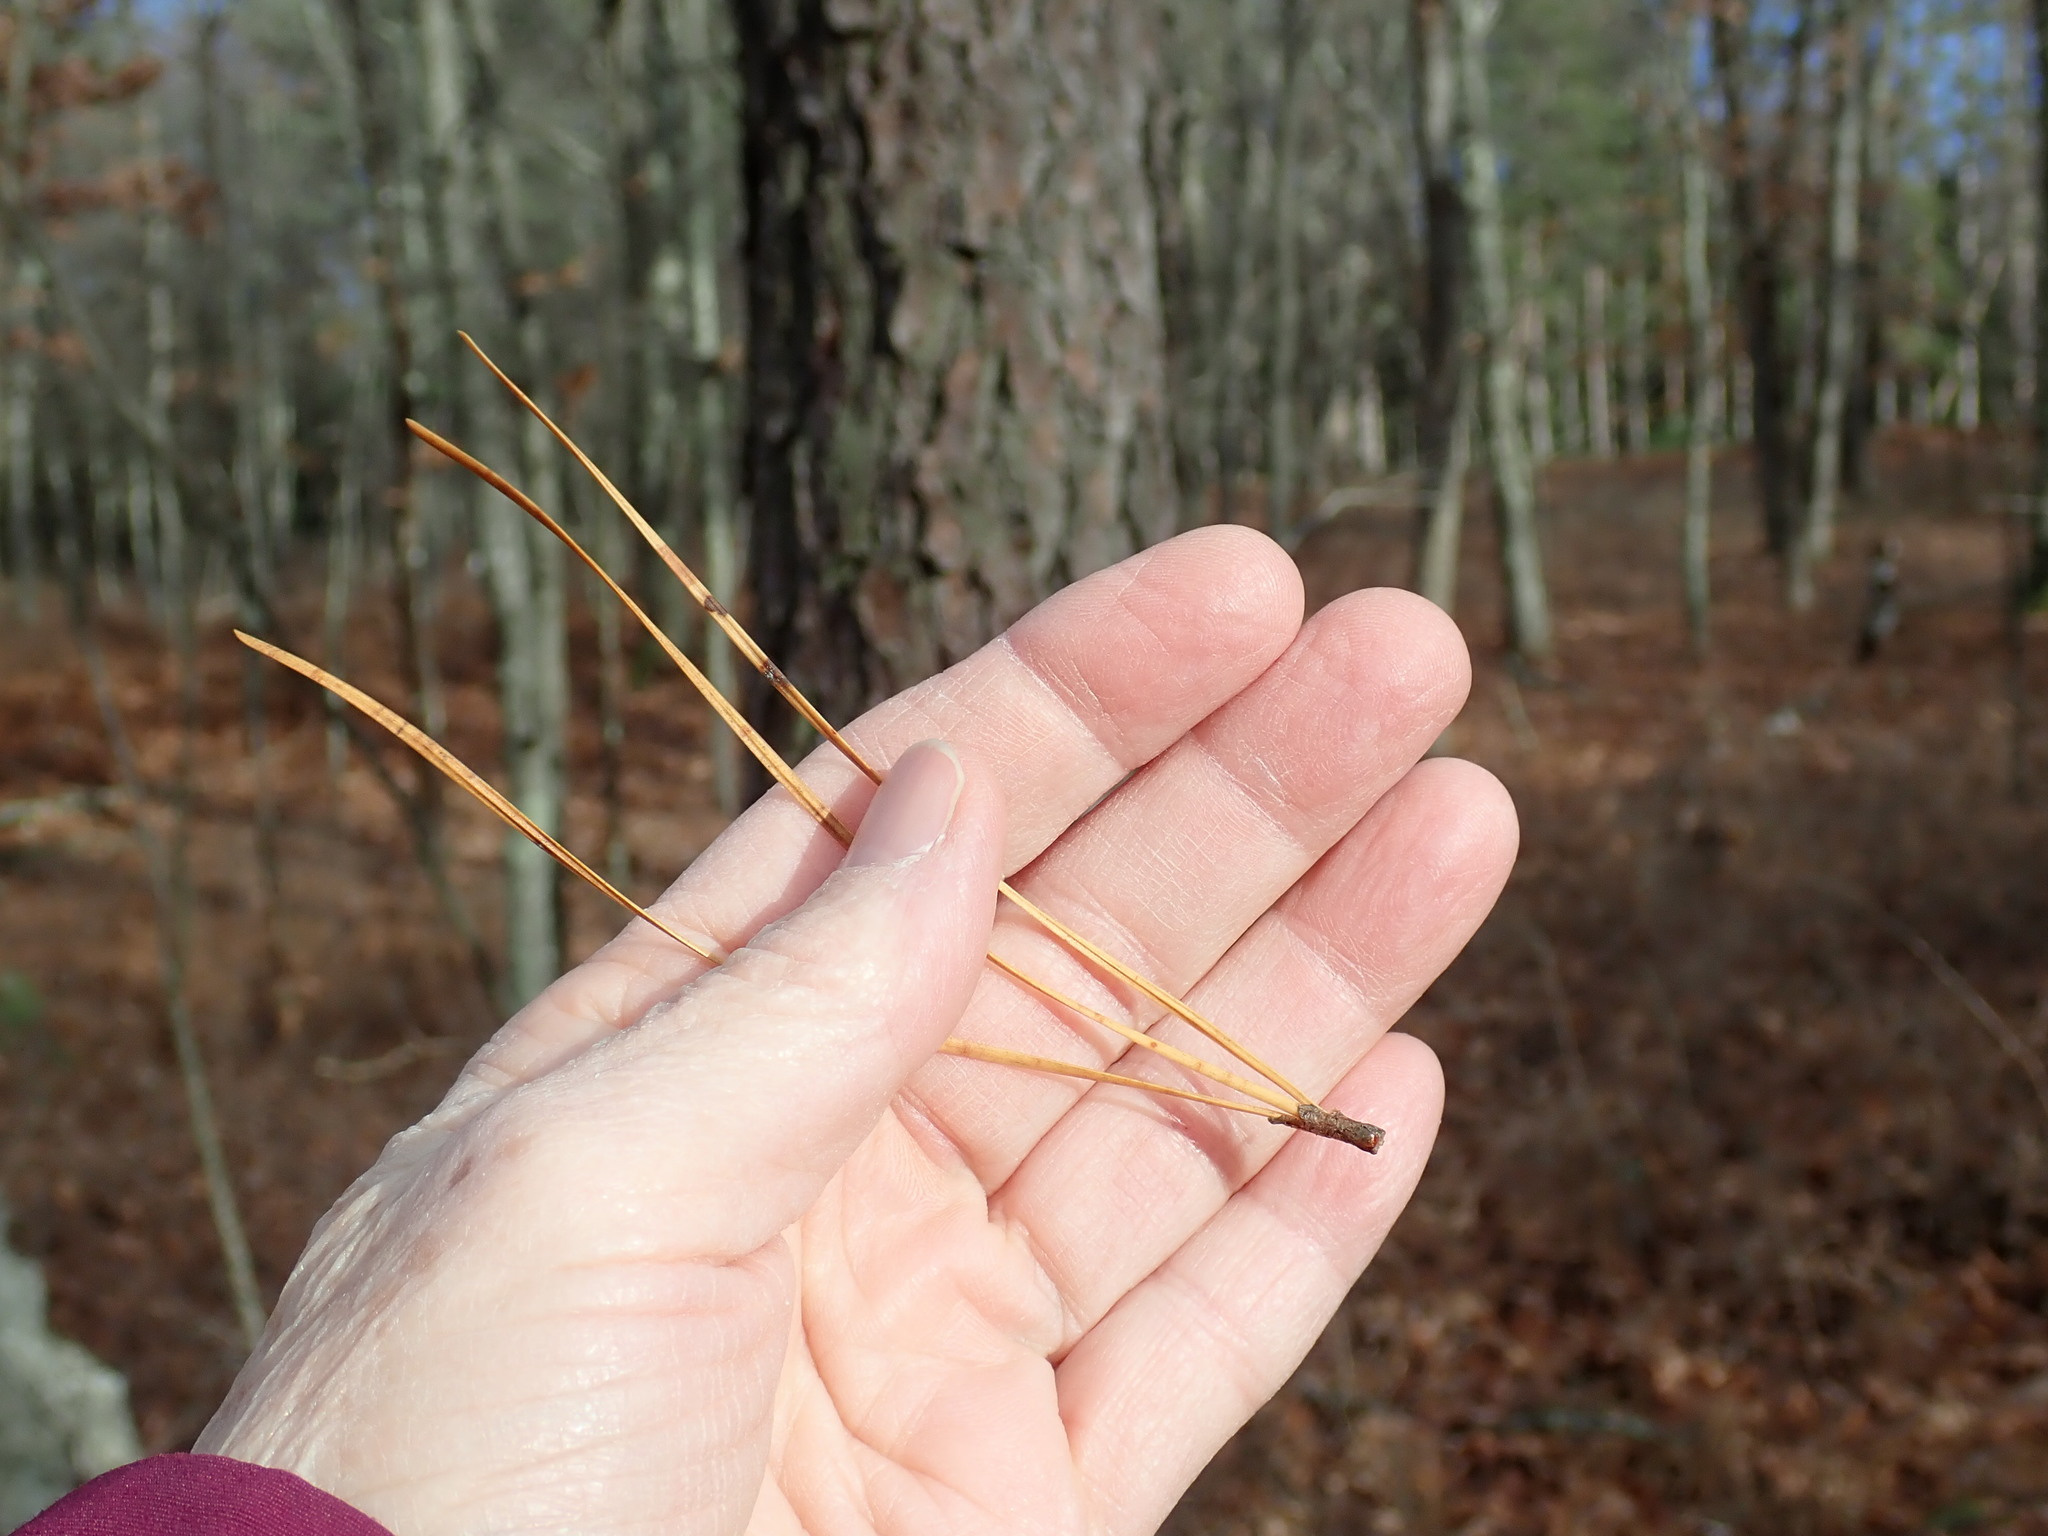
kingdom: Plantae
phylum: Tracheophyta
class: Pinopsida
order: Pinales
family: Pinaceae
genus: Pinus
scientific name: Pinus rigida
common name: Pitch pine
